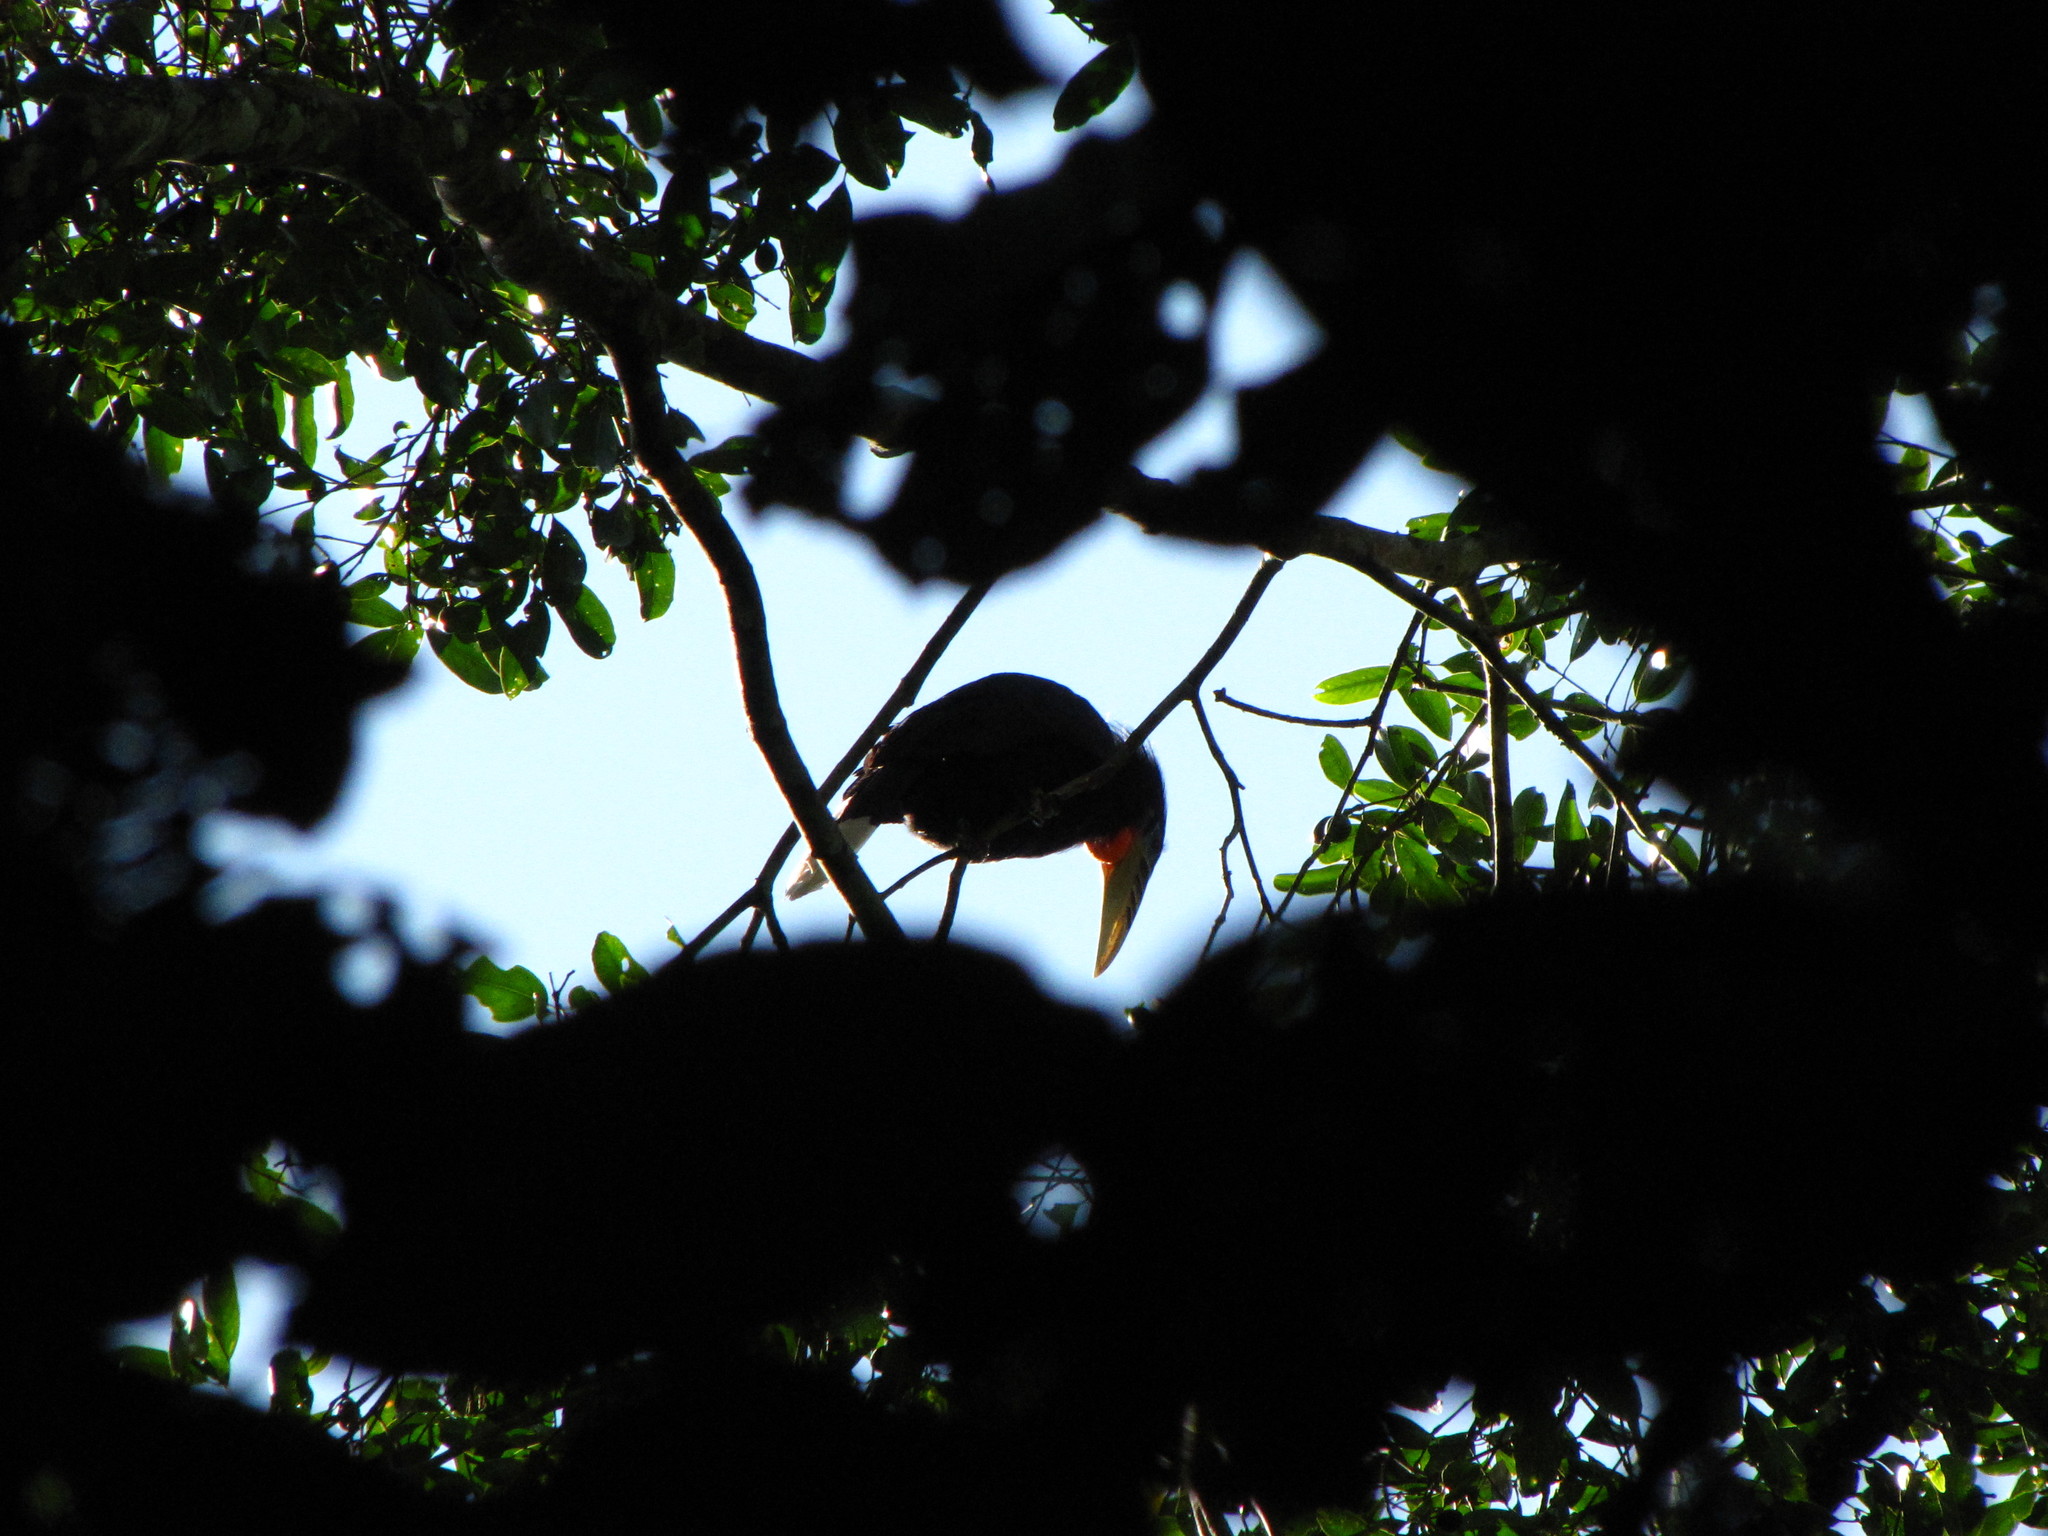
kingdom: Animalia
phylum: Chordata
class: Aves
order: Bucerotiformes
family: Bucerotidae
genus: Aceros
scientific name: Aceros nipalensis
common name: Rufous-necked hornbill
